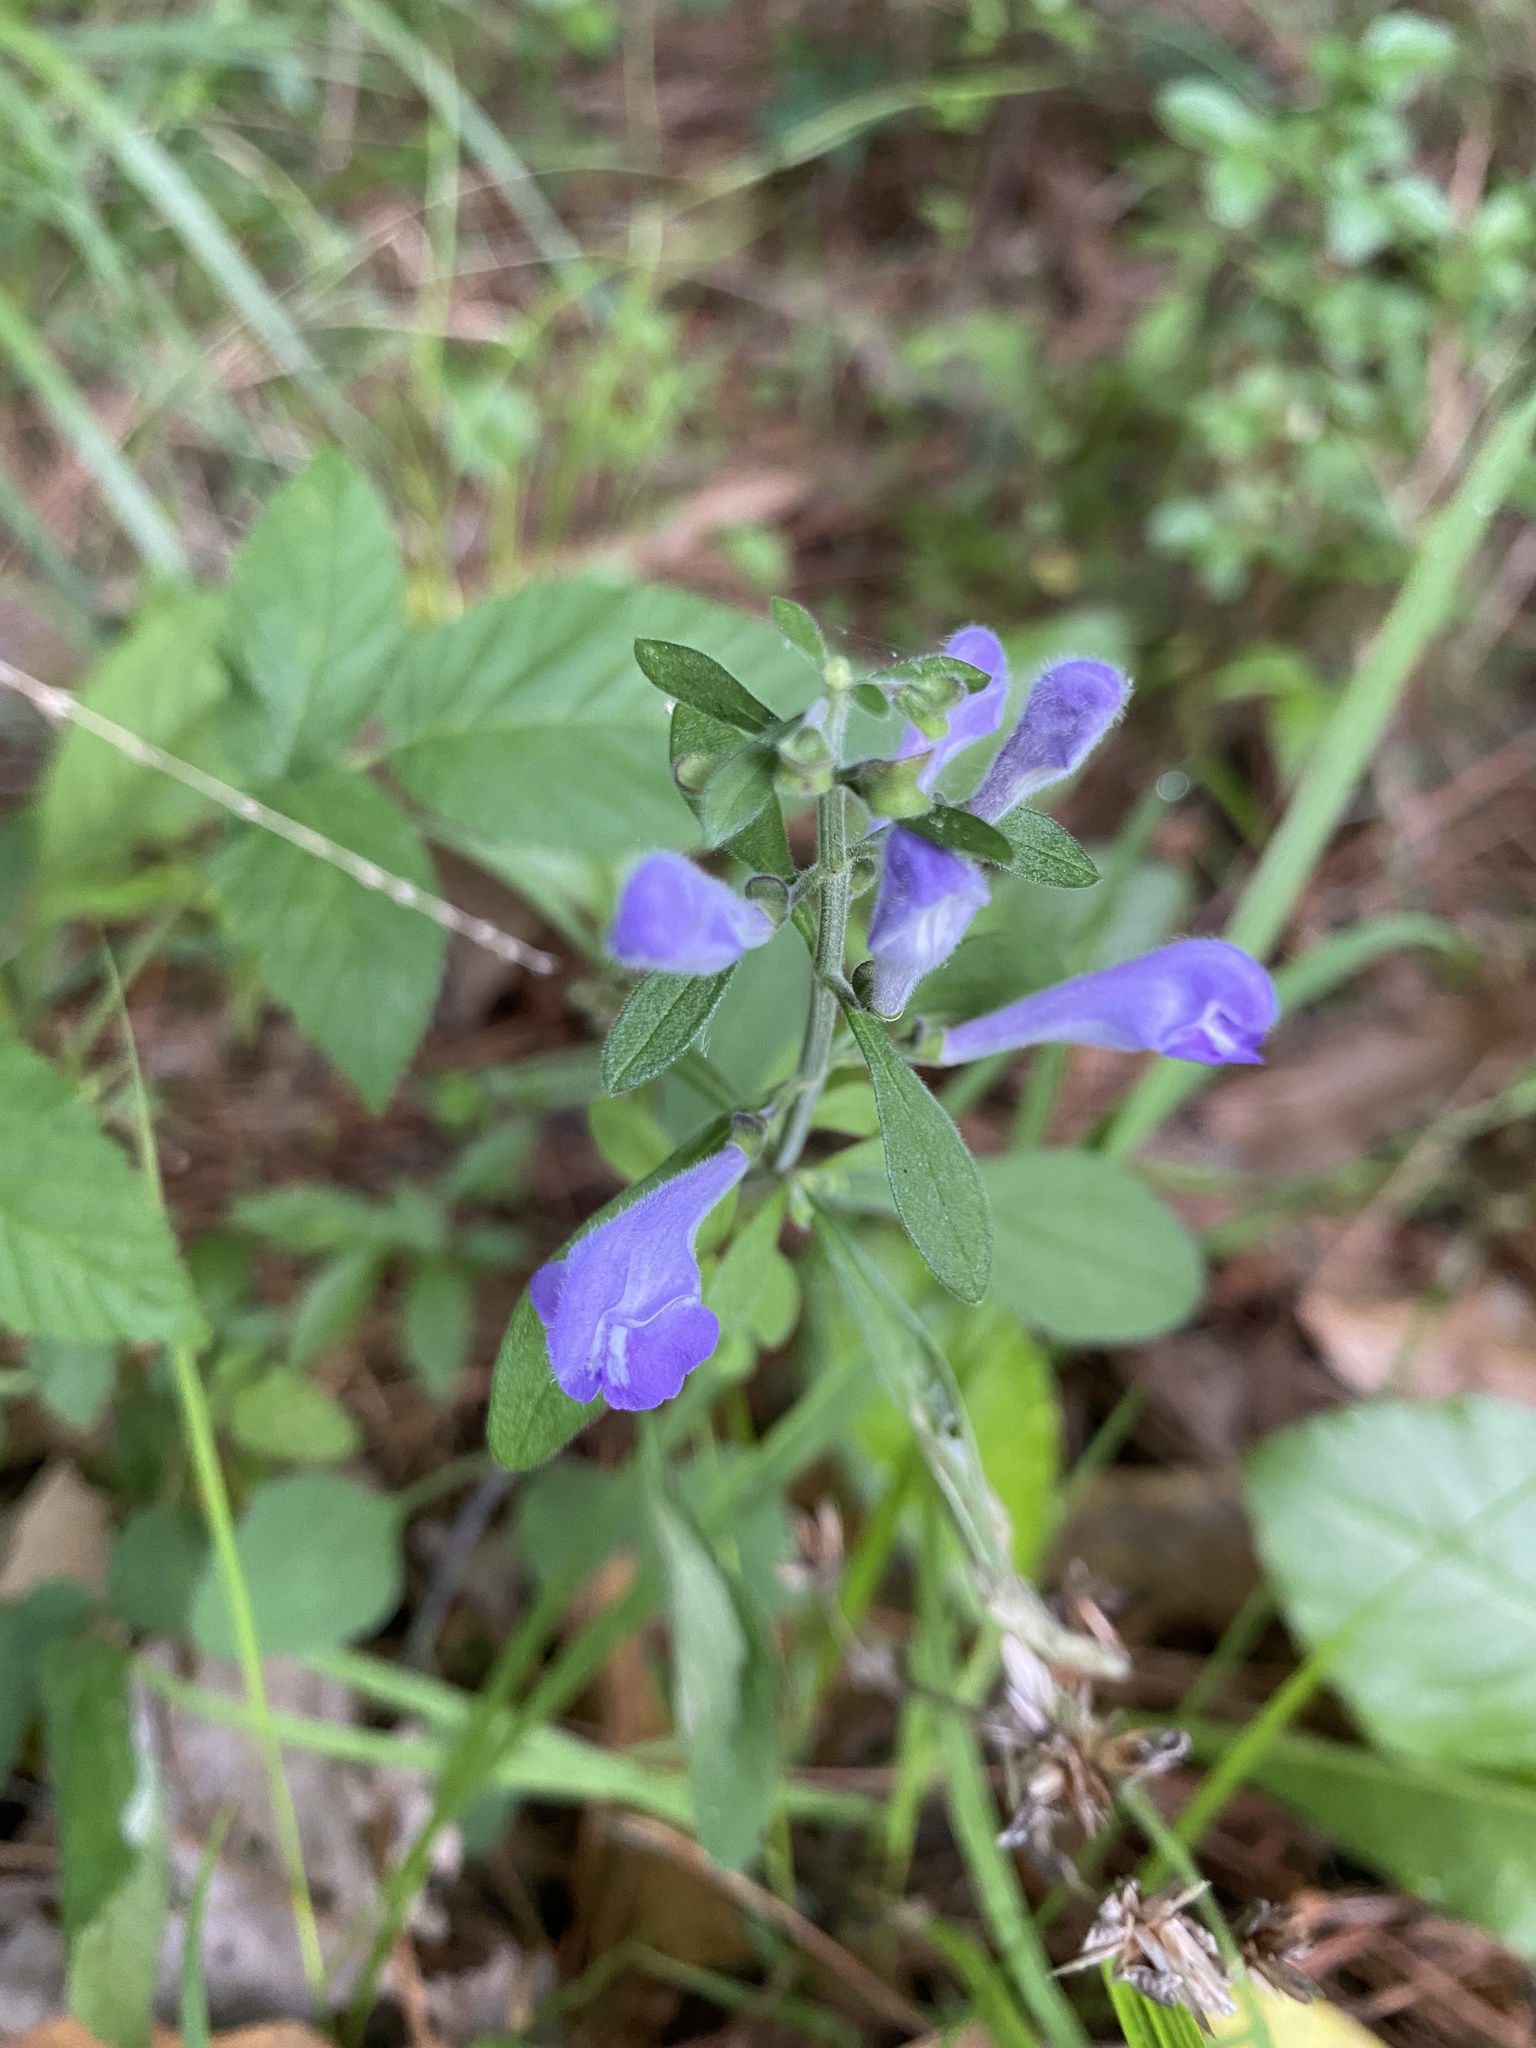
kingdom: Plantae
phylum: Tracheophyta
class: Magnoliopsida
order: Lamiales
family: Lamiaceae
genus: Scutellaria
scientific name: Scutellaria integrifolia
